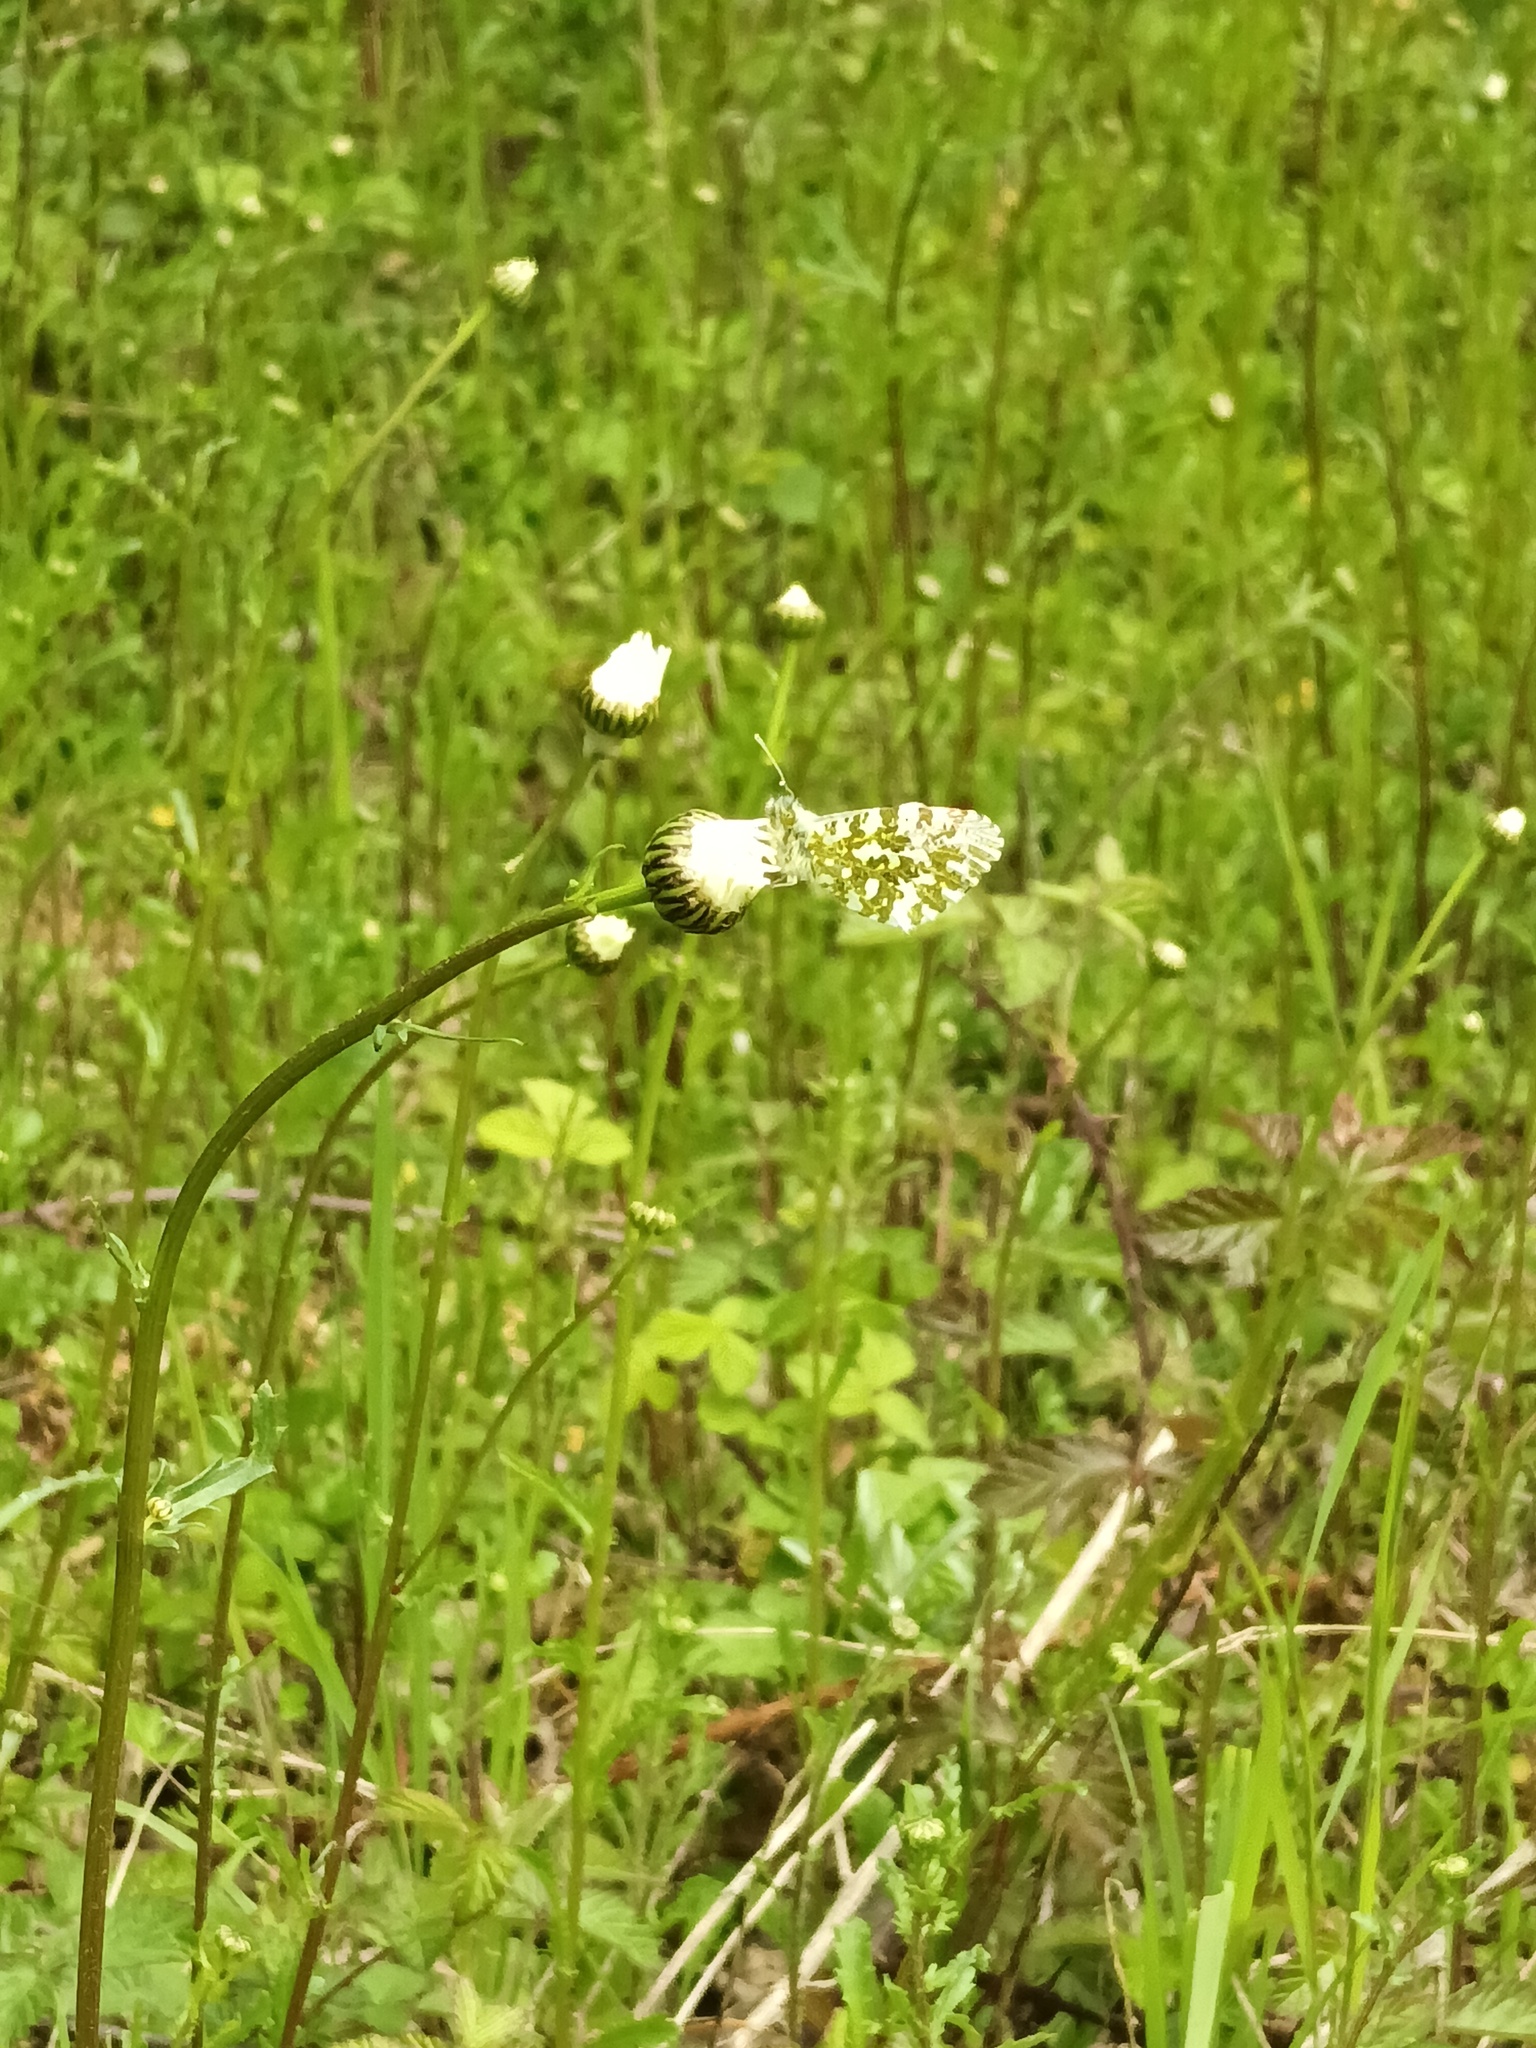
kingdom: Animalia
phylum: Arthropoda
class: Insecta
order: Lepidoptera
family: Pieridae
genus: Anthocharis
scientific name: Anthocharis cardamines
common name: Orange-tip
